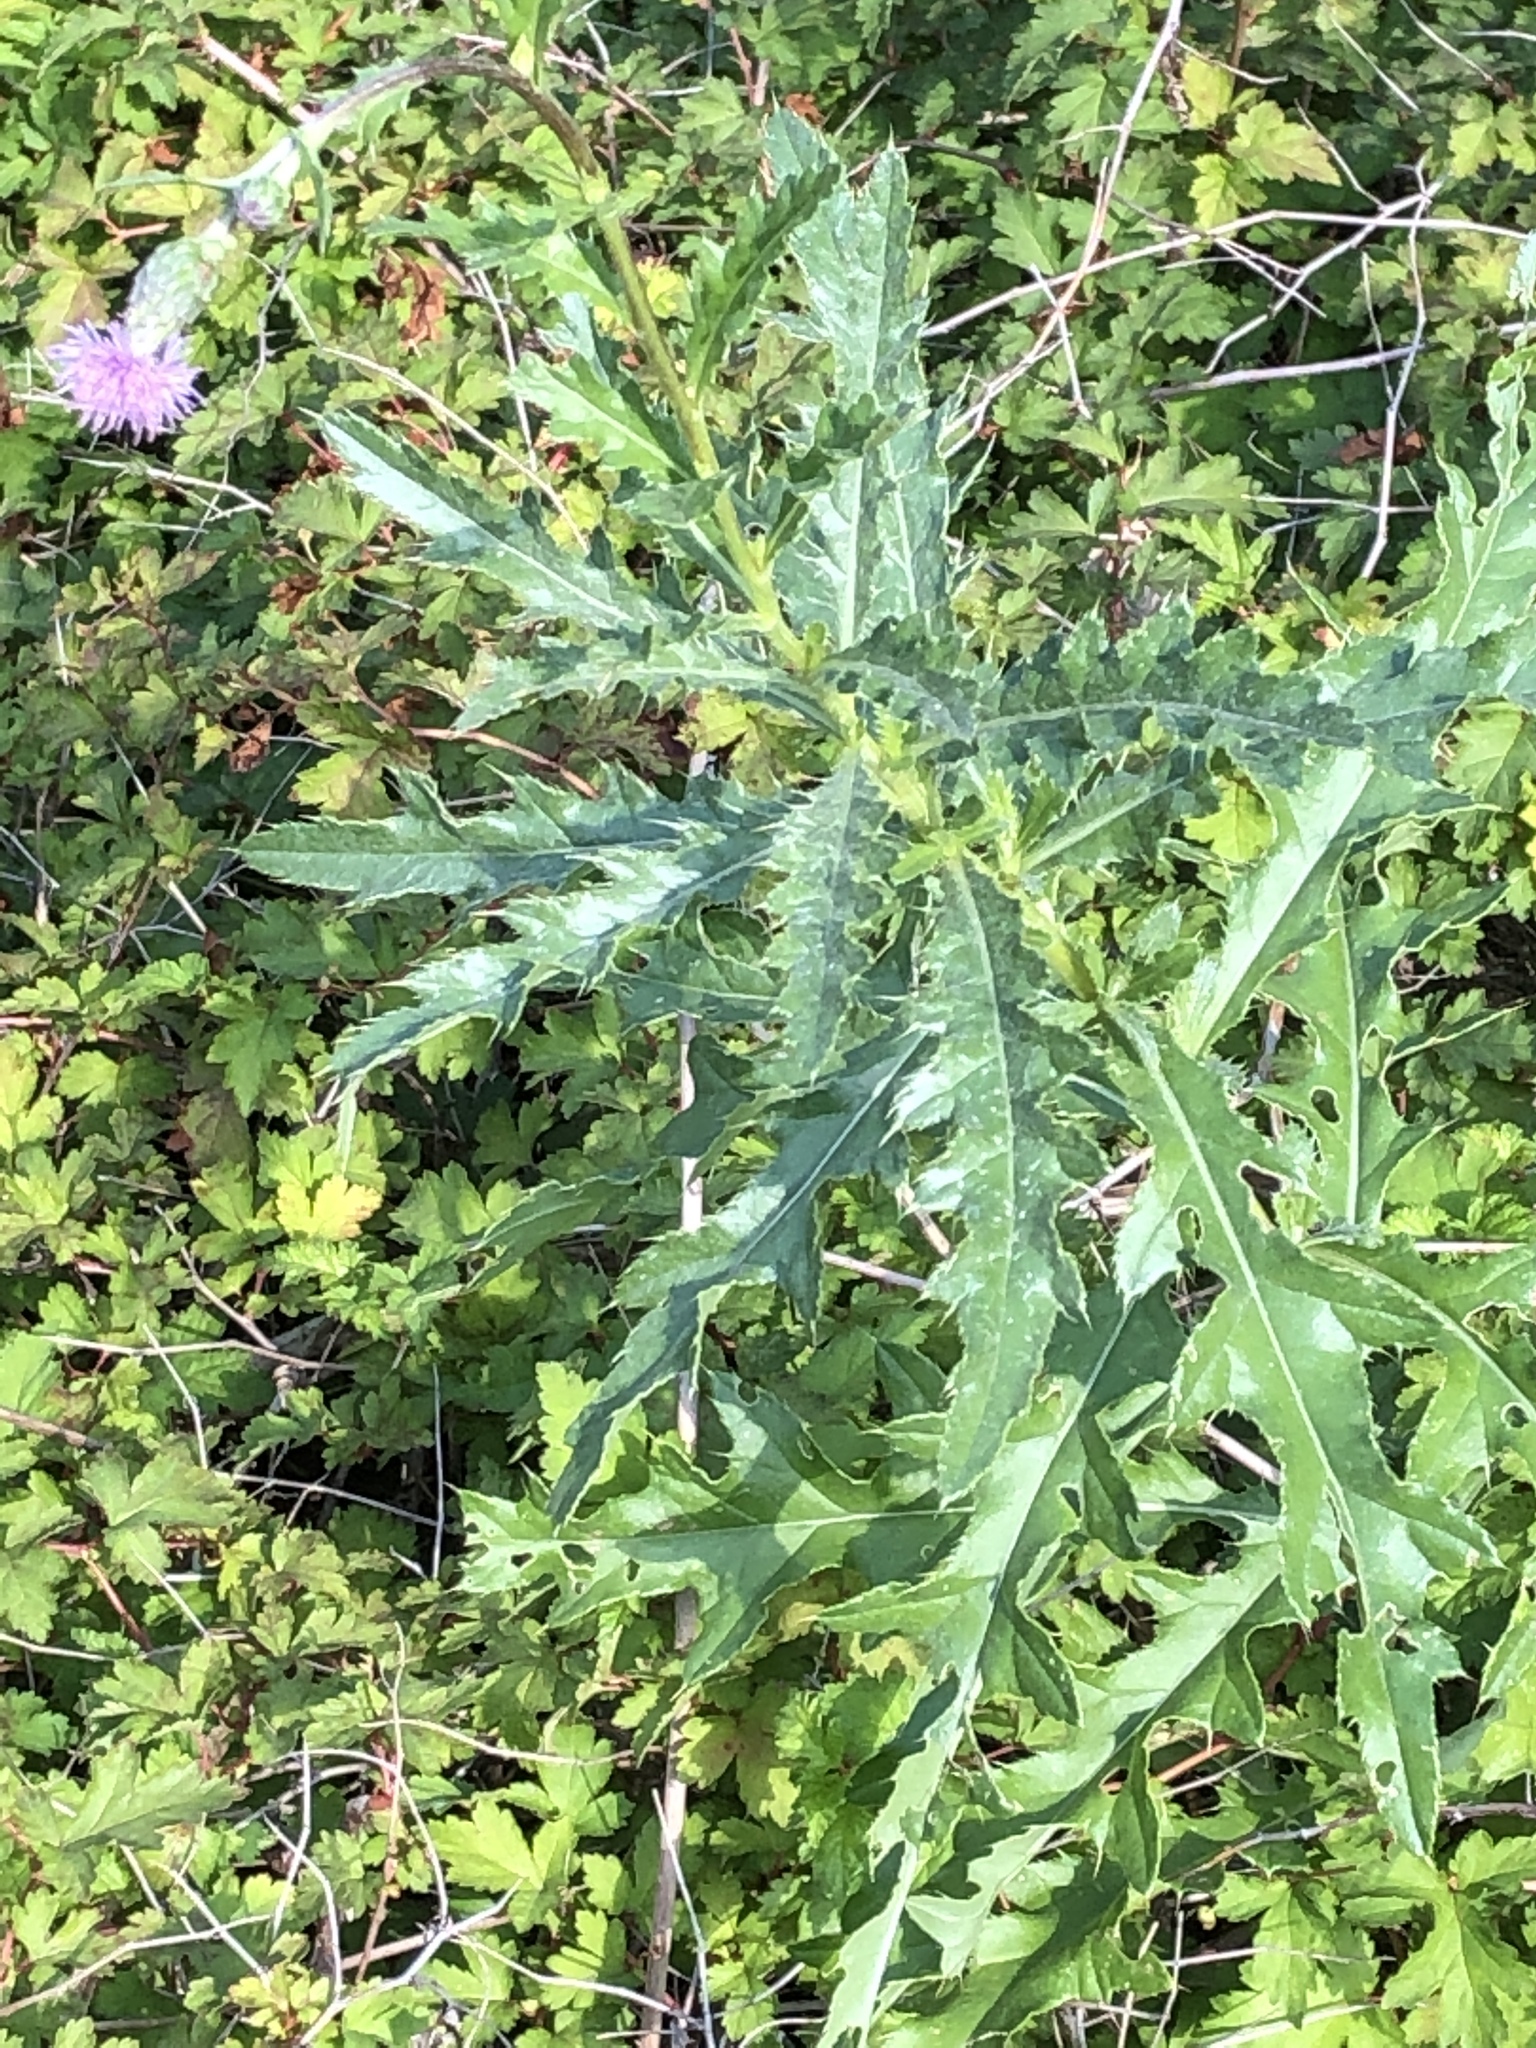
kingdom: Plantae
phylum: Tracheophyta
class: Magnoliopsida
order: Asterales
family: Asteraceae
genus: Cirsium
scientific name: Cirsium arvense
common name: Creeping thistle
